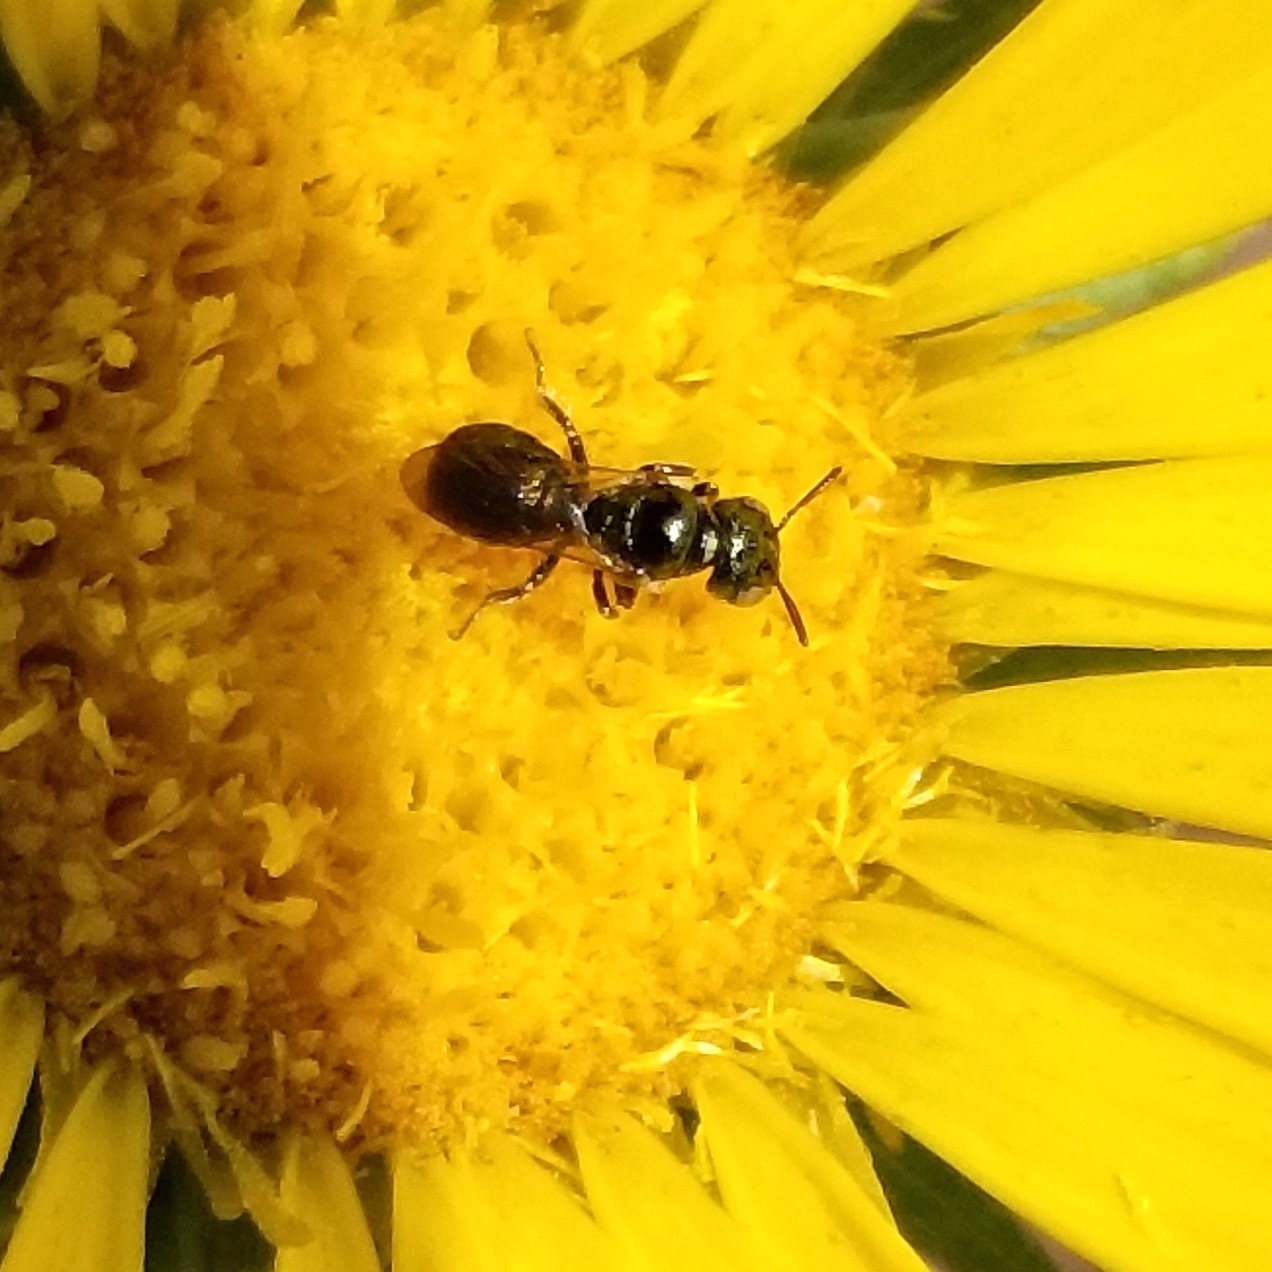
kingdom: Animalia
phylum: Arthropoda
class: Insecta
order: Hymenoptera
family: Apidae
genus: Zadontomerus
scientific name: Zadontomerus
